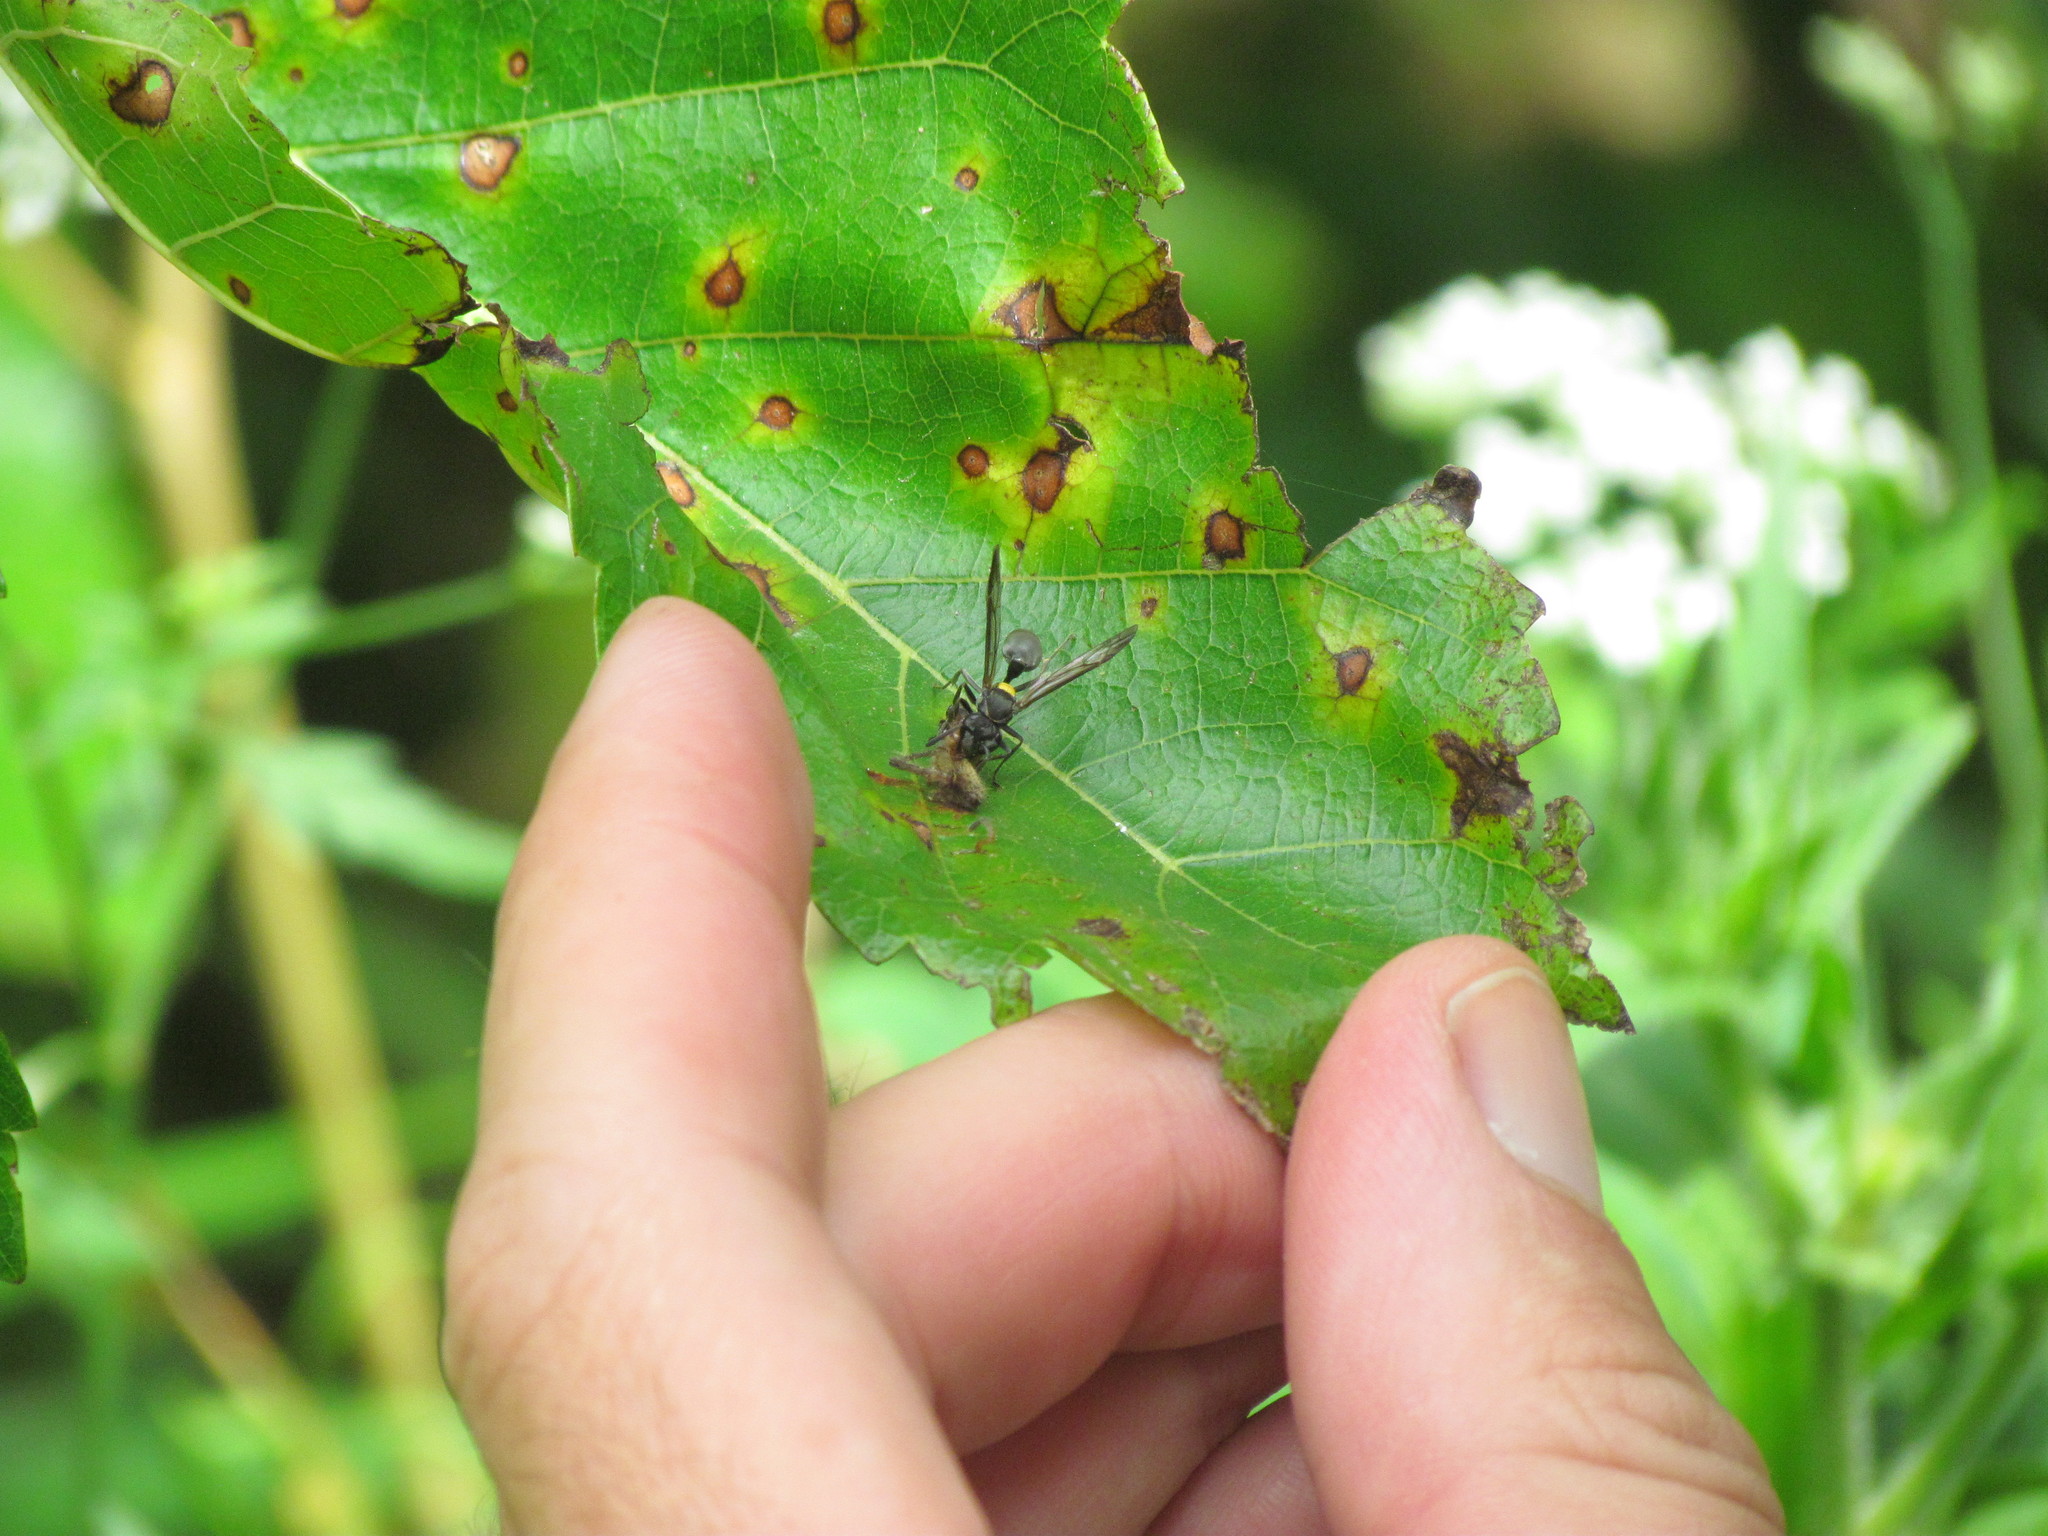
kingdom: Animalia
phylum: Arthropoda
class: Insecta
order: Hymenoptera
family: Eumenidae
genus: Polybia
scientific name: Polybia scutellaris
